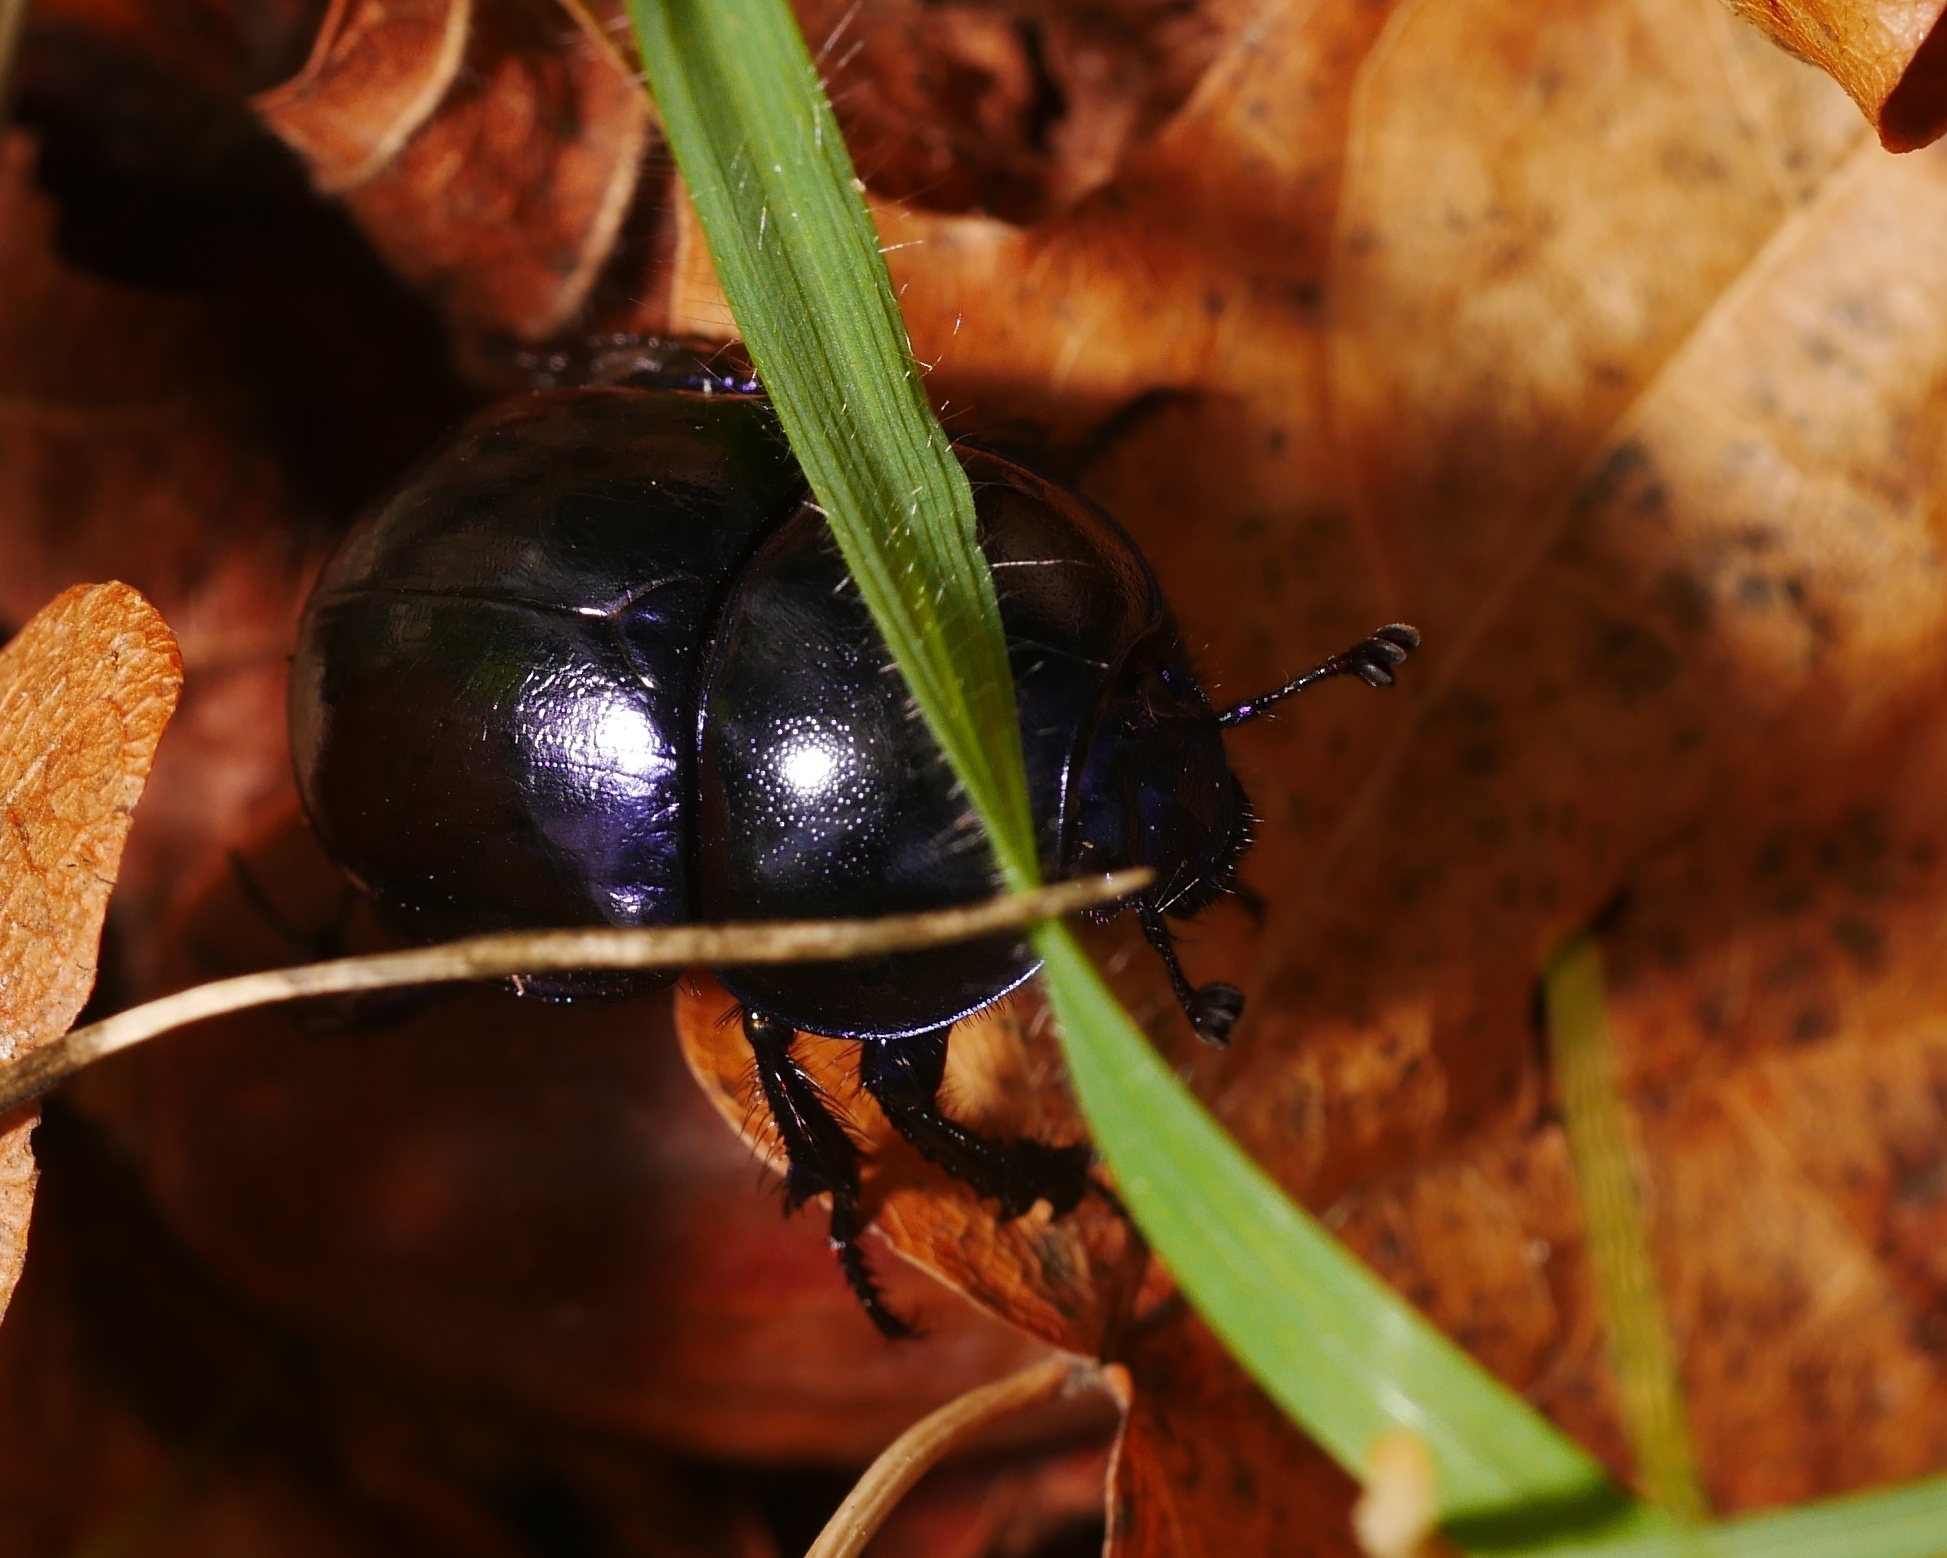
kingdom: Animalia
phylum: Arthropoda
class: Insecta
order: Coleoptera
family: Geotrupidae
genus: Trypocopris
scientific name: Trypocopris vernalis
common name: Spring dumbledor
